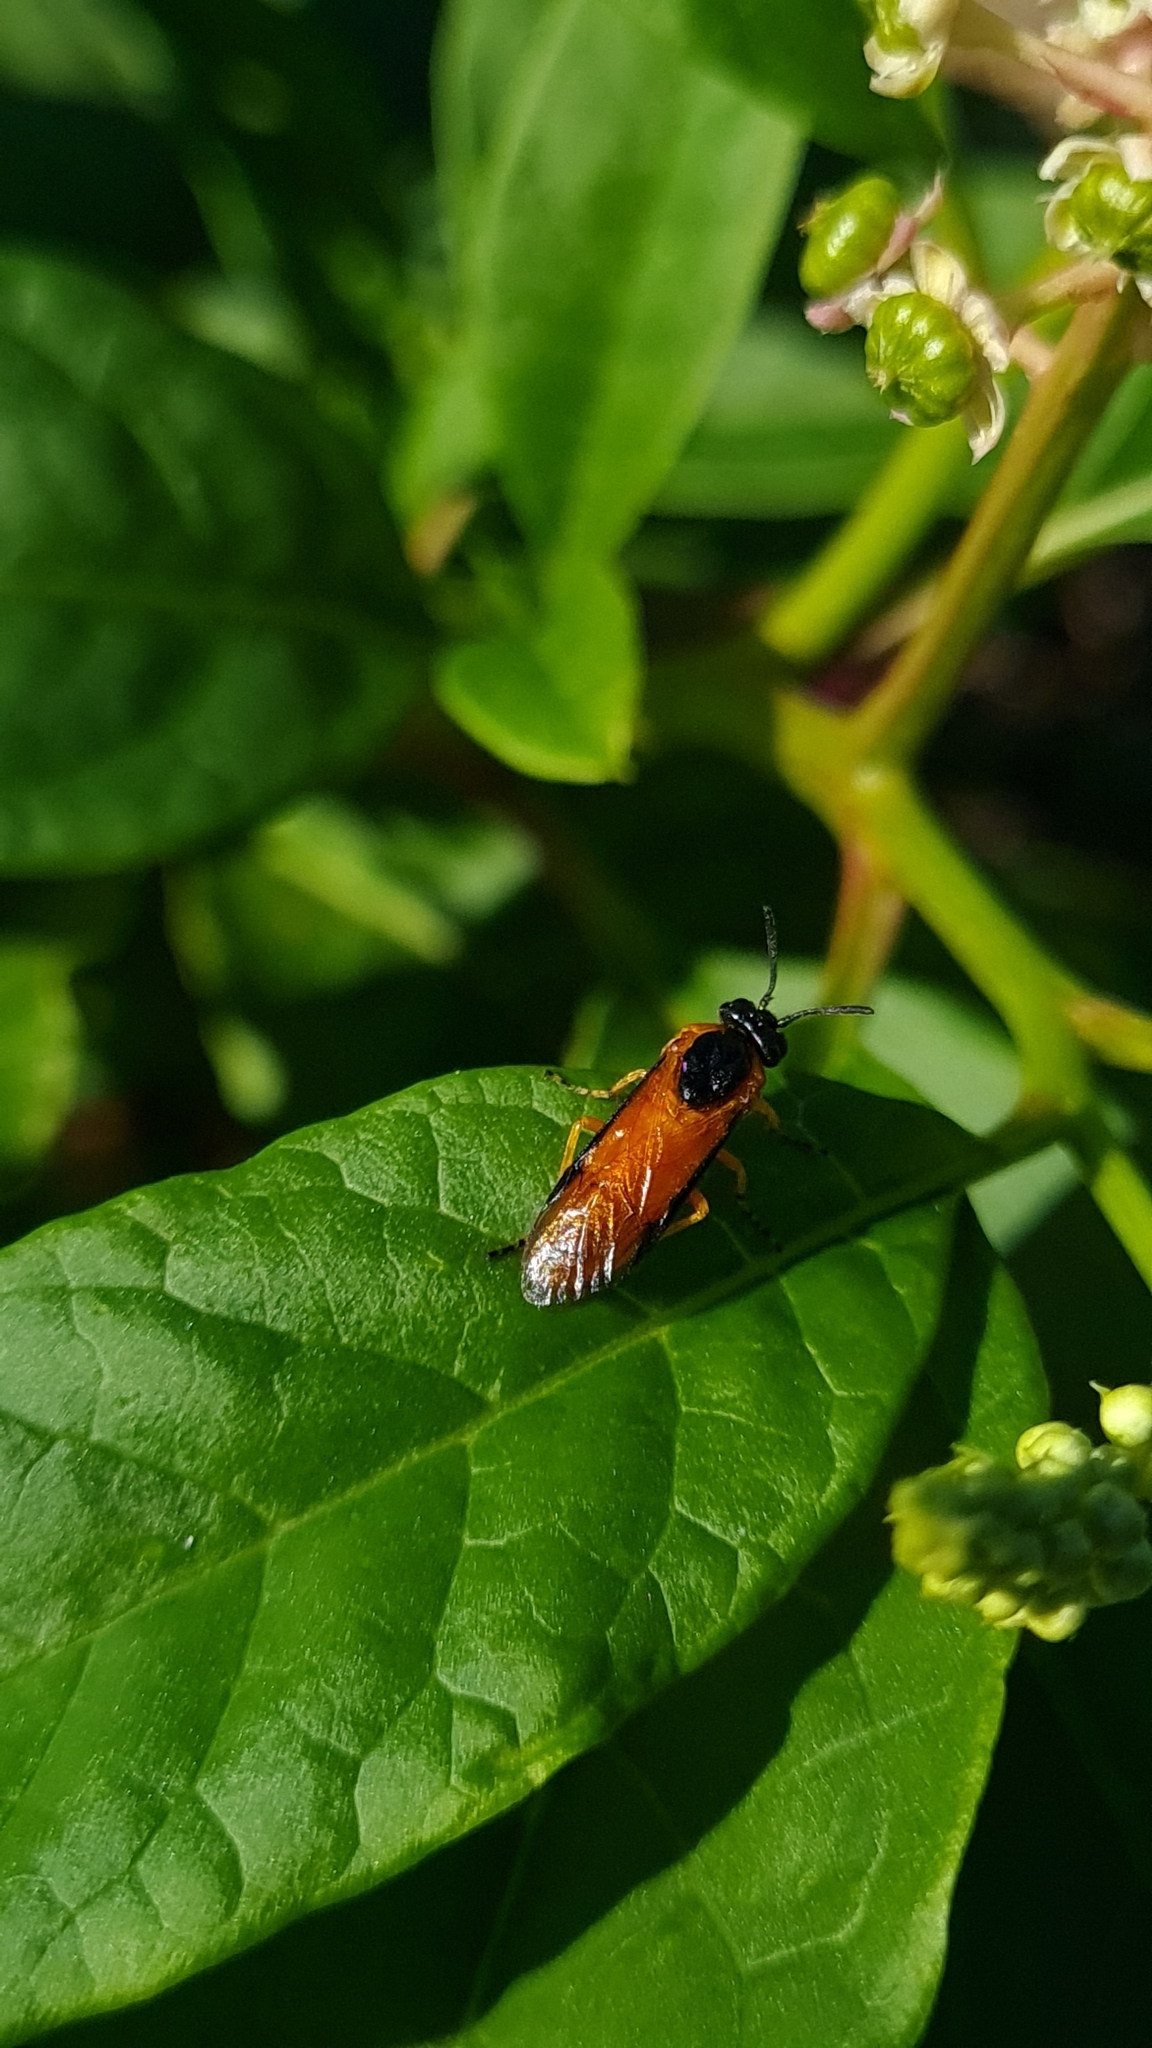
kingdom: Animalia
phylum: Arthropoda
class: Insecta
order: Hymenoptera
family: Argidae
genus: Arge
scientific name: Arge ochropus
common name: Argid sawfly
